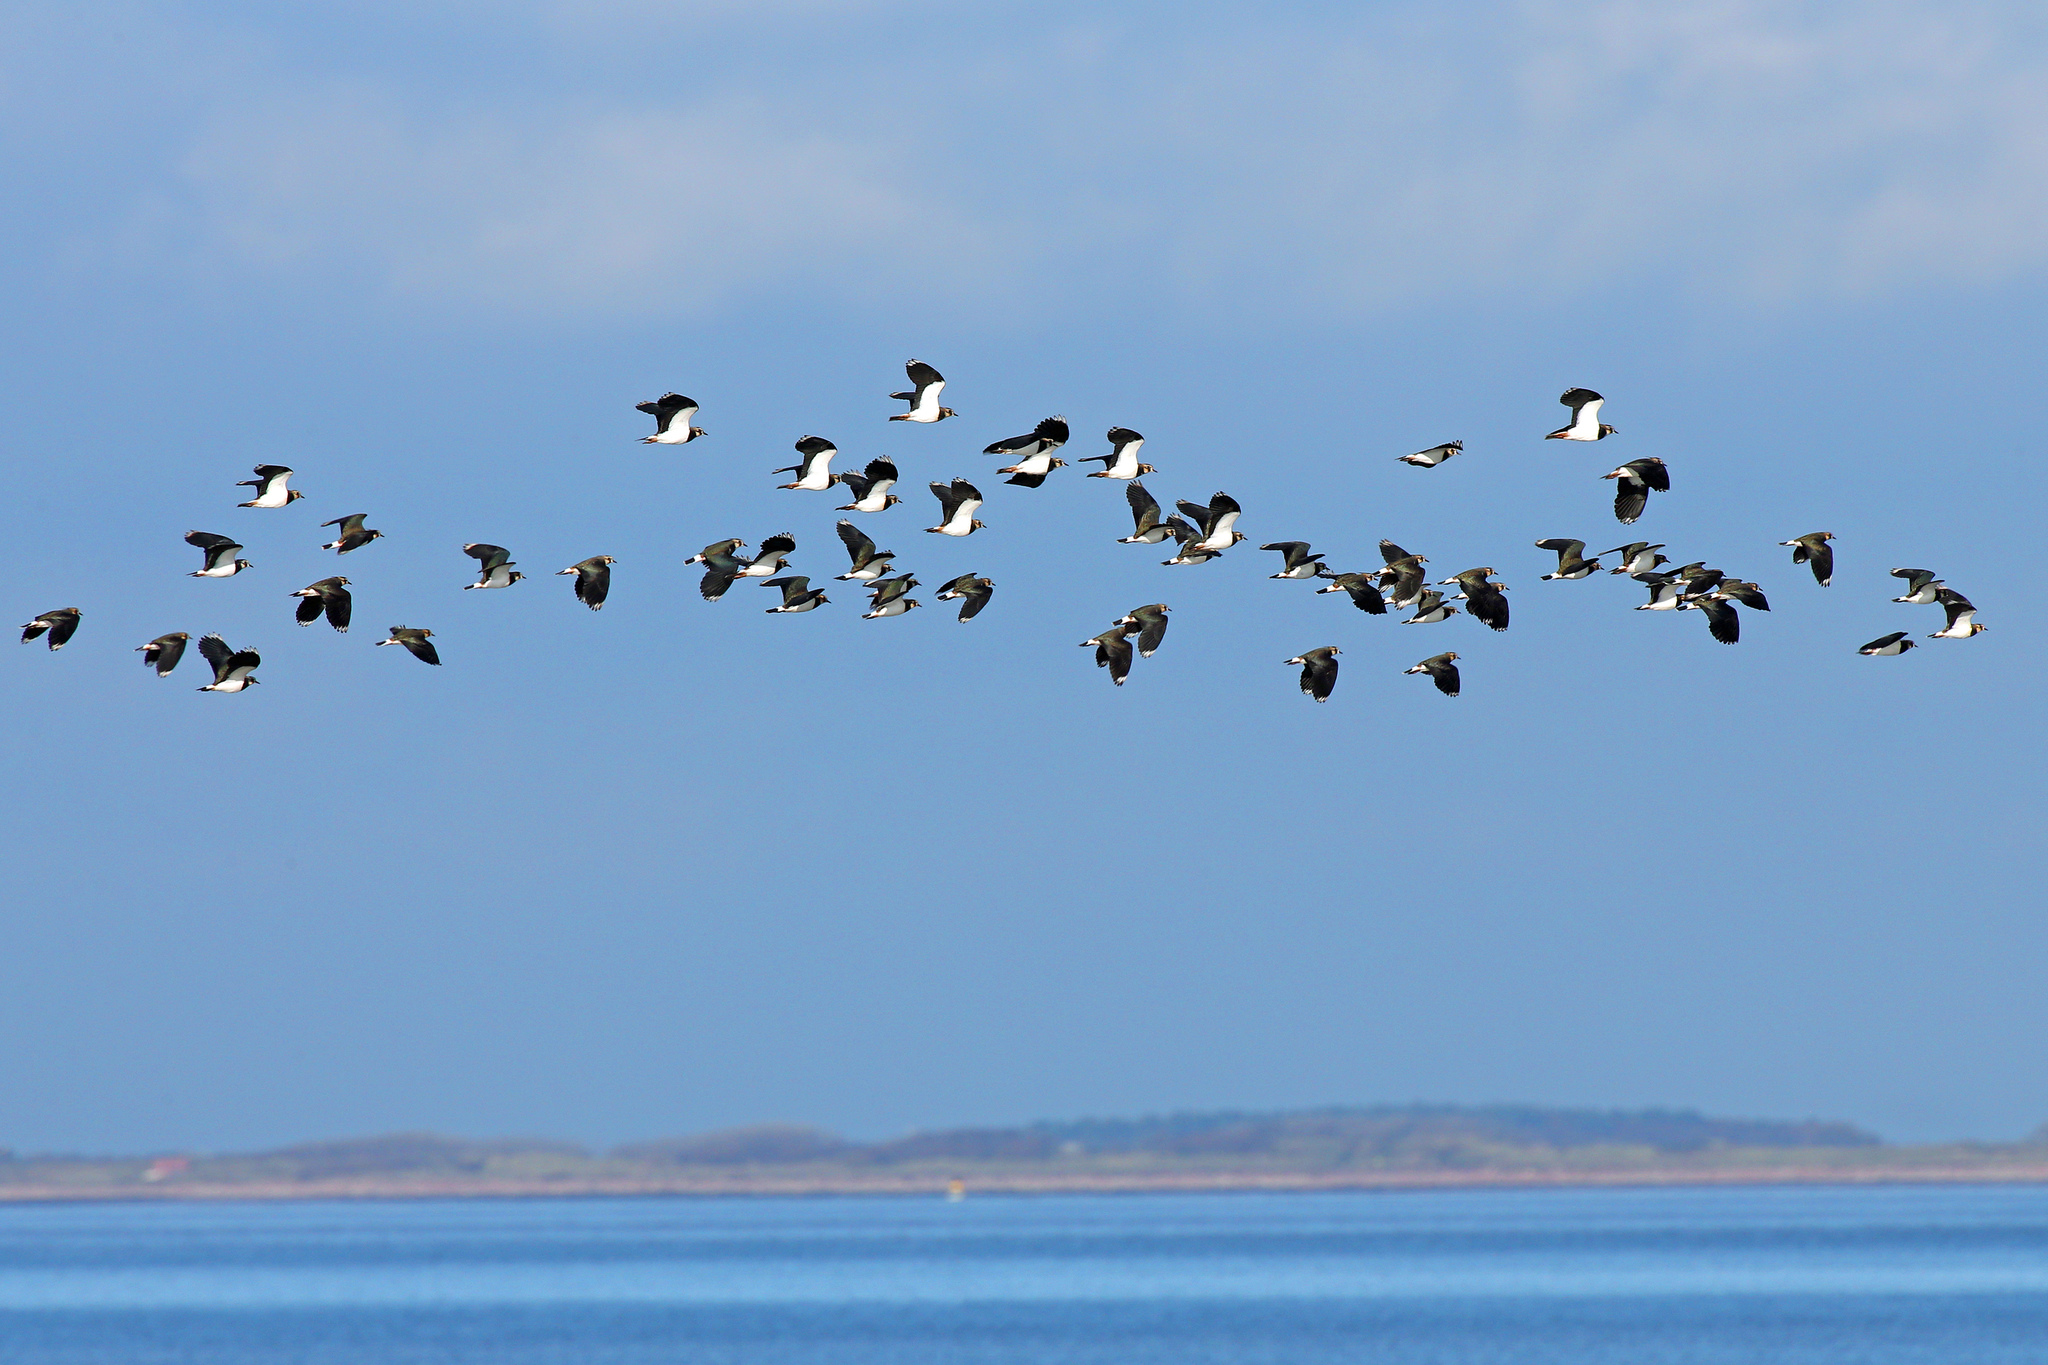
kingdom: Animalia
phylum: Chordata
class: Aves
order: Charadriiformes
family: Charadriidae
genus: Vanellus
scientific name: Vanellus vanellus
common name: Northern lapwing
